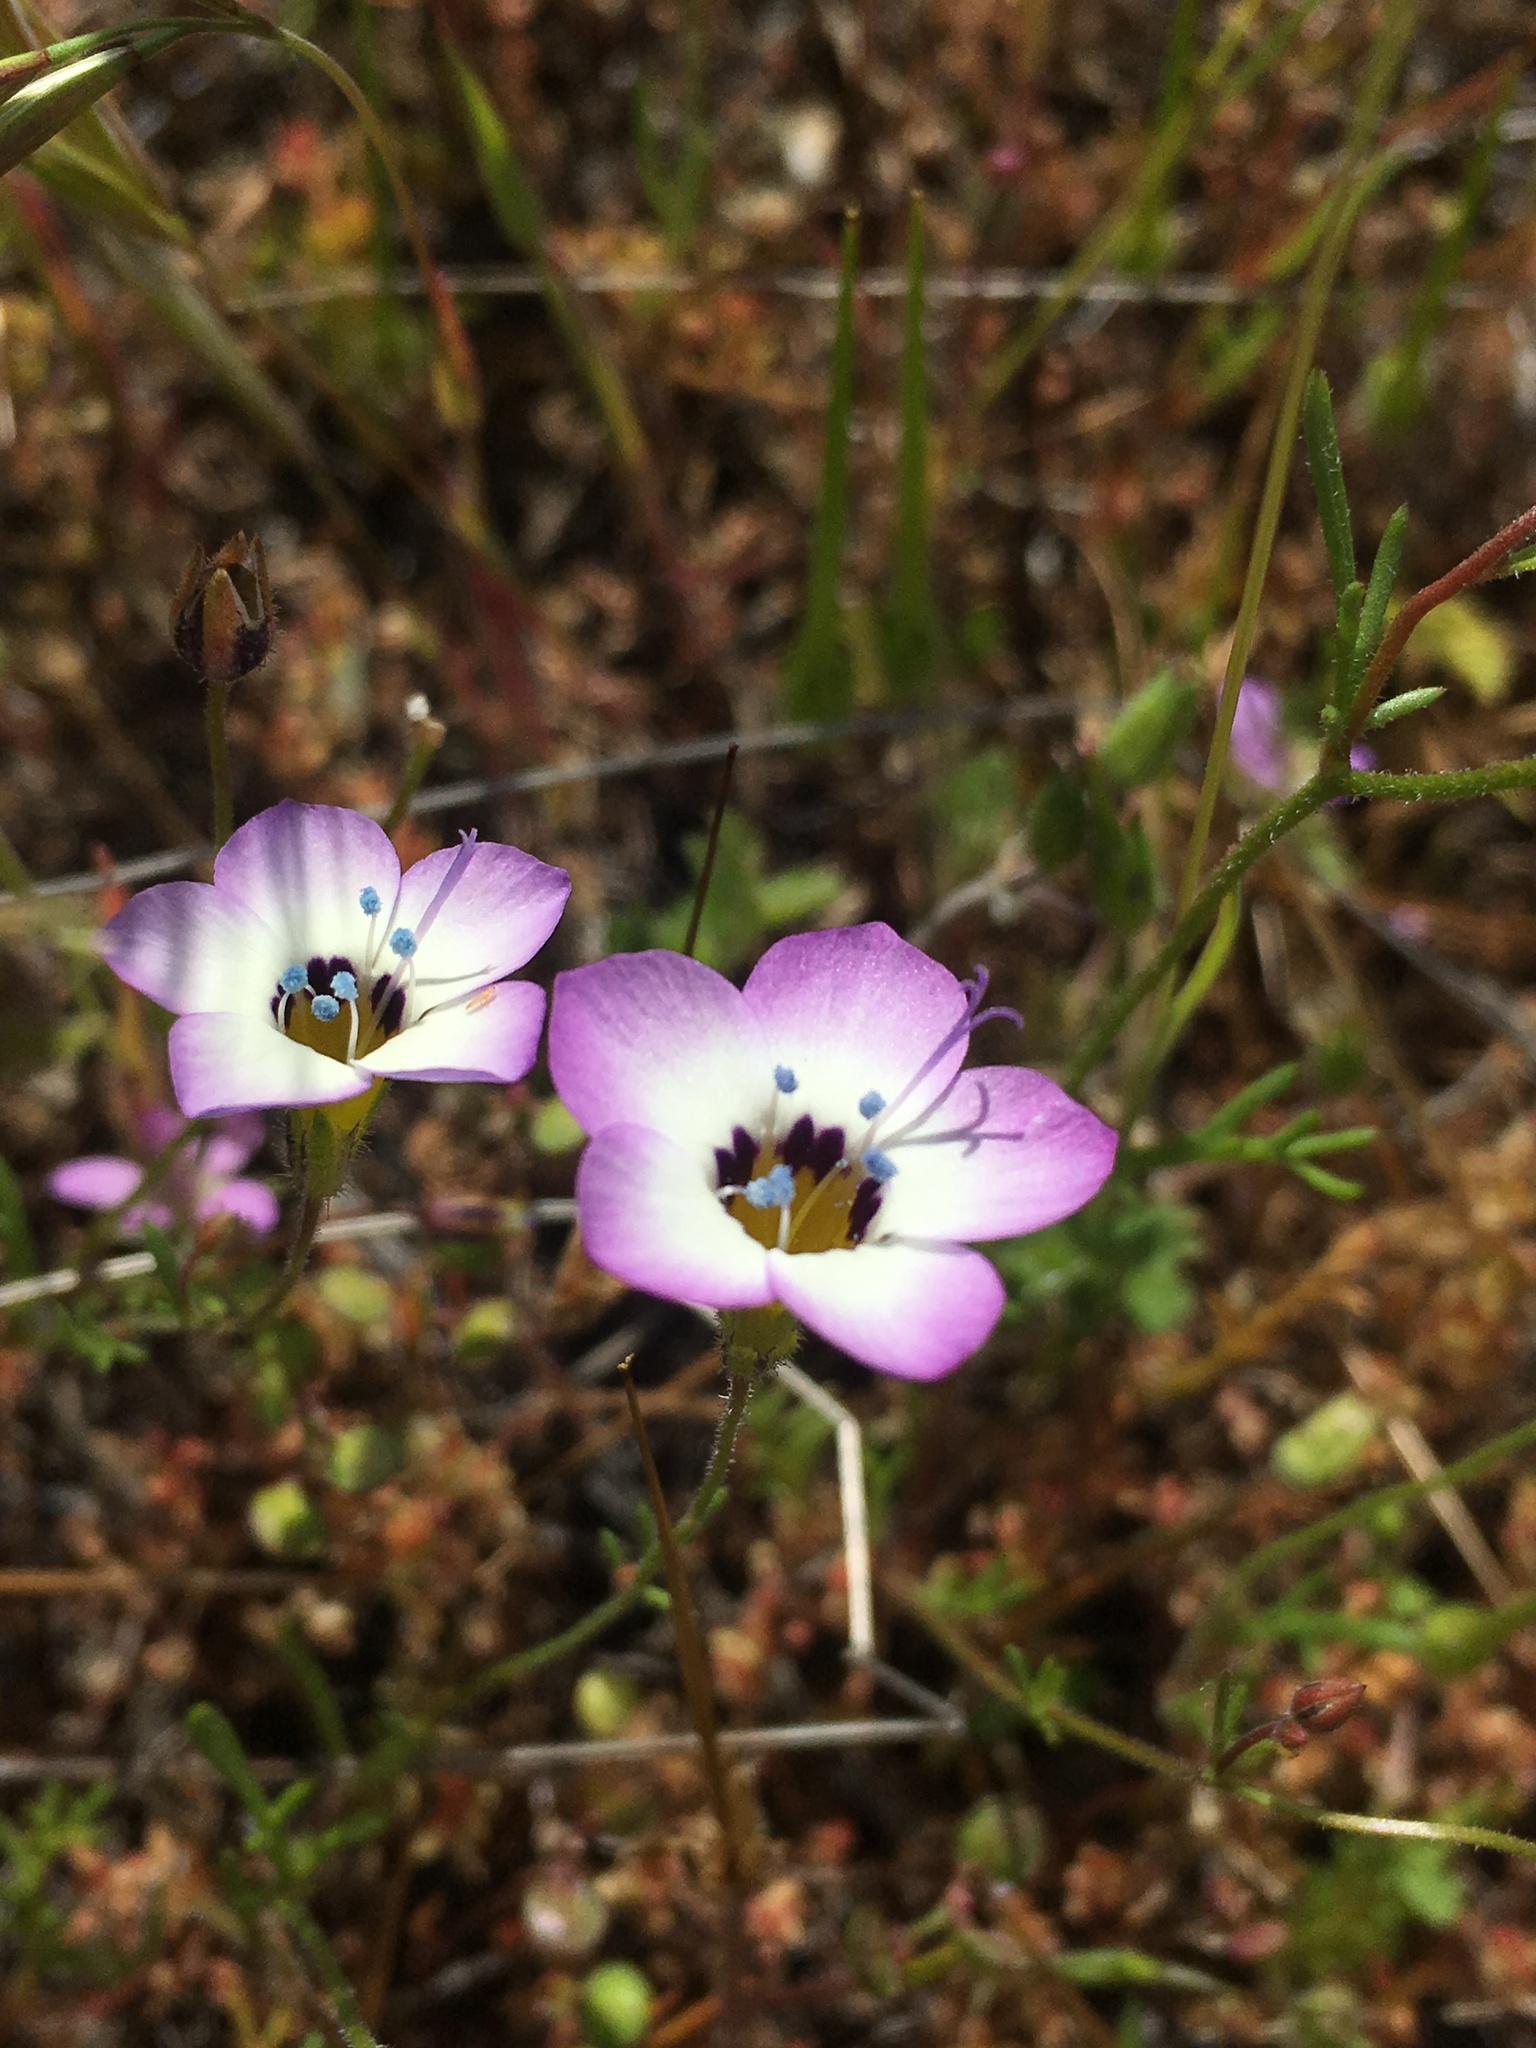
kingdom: Plantae
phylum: Tracheophyta
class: Magnoliopsida
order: Ericales
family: Polemoniaceae
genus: Gilia
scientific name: Gilia tricolor
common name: Bird's-eyes
